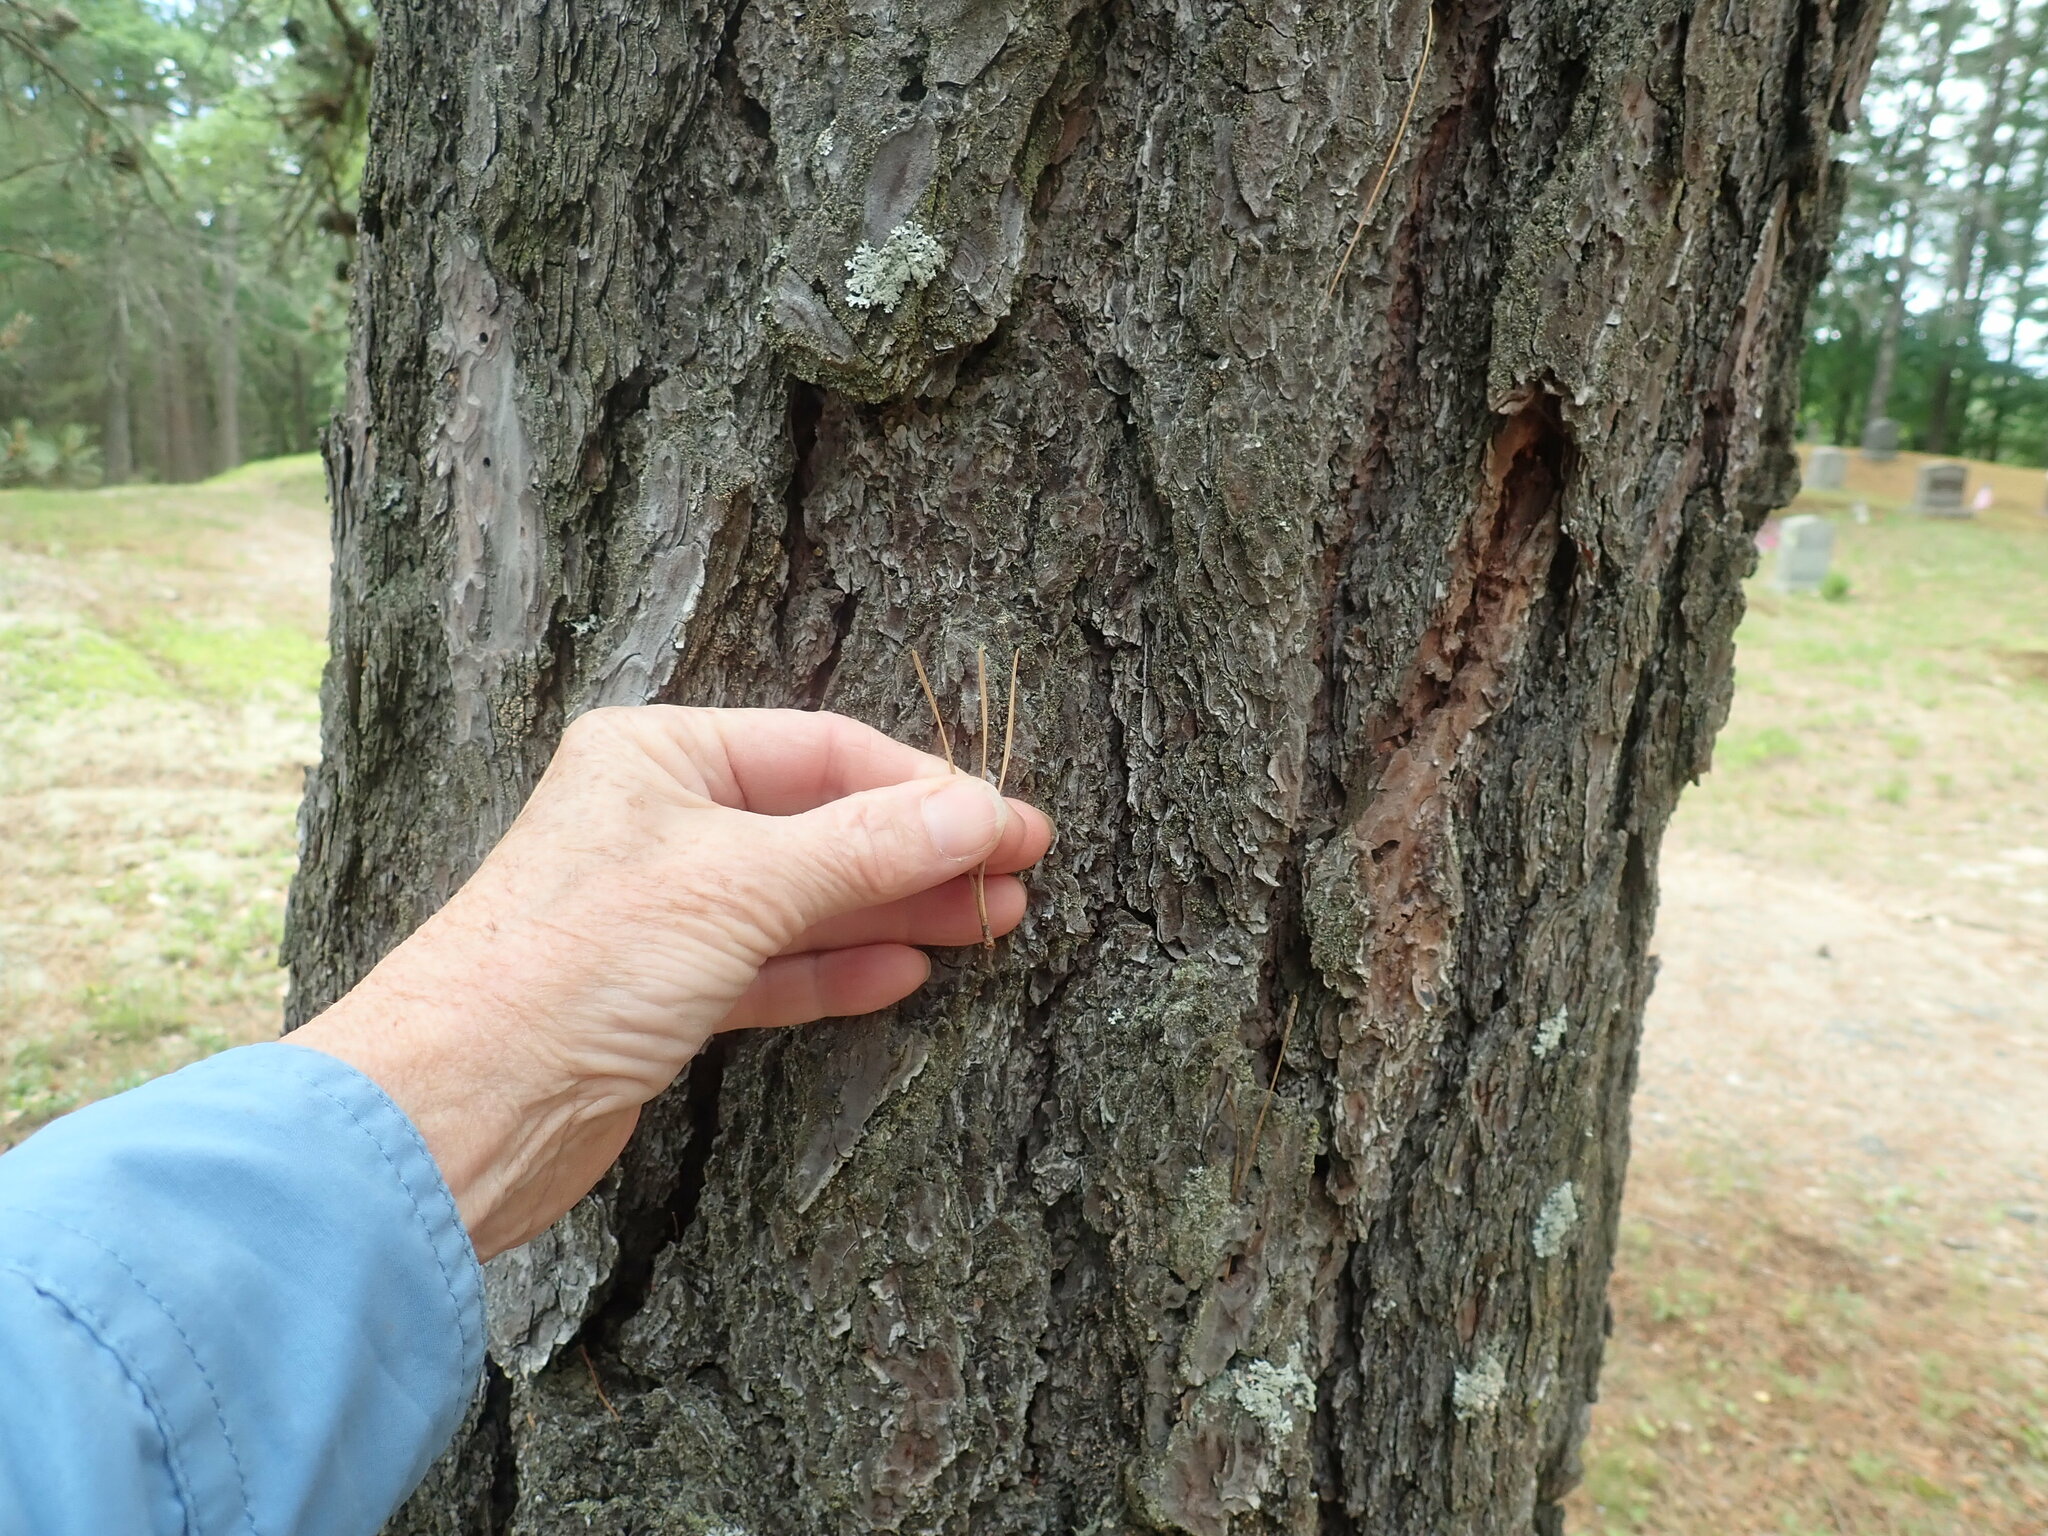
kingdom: Plantae
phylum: Tracheophyta
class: Pinopsida
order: Pinales
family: Pinaceae
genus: Pinus
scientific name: Pinus rigida
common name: Pitch pine
